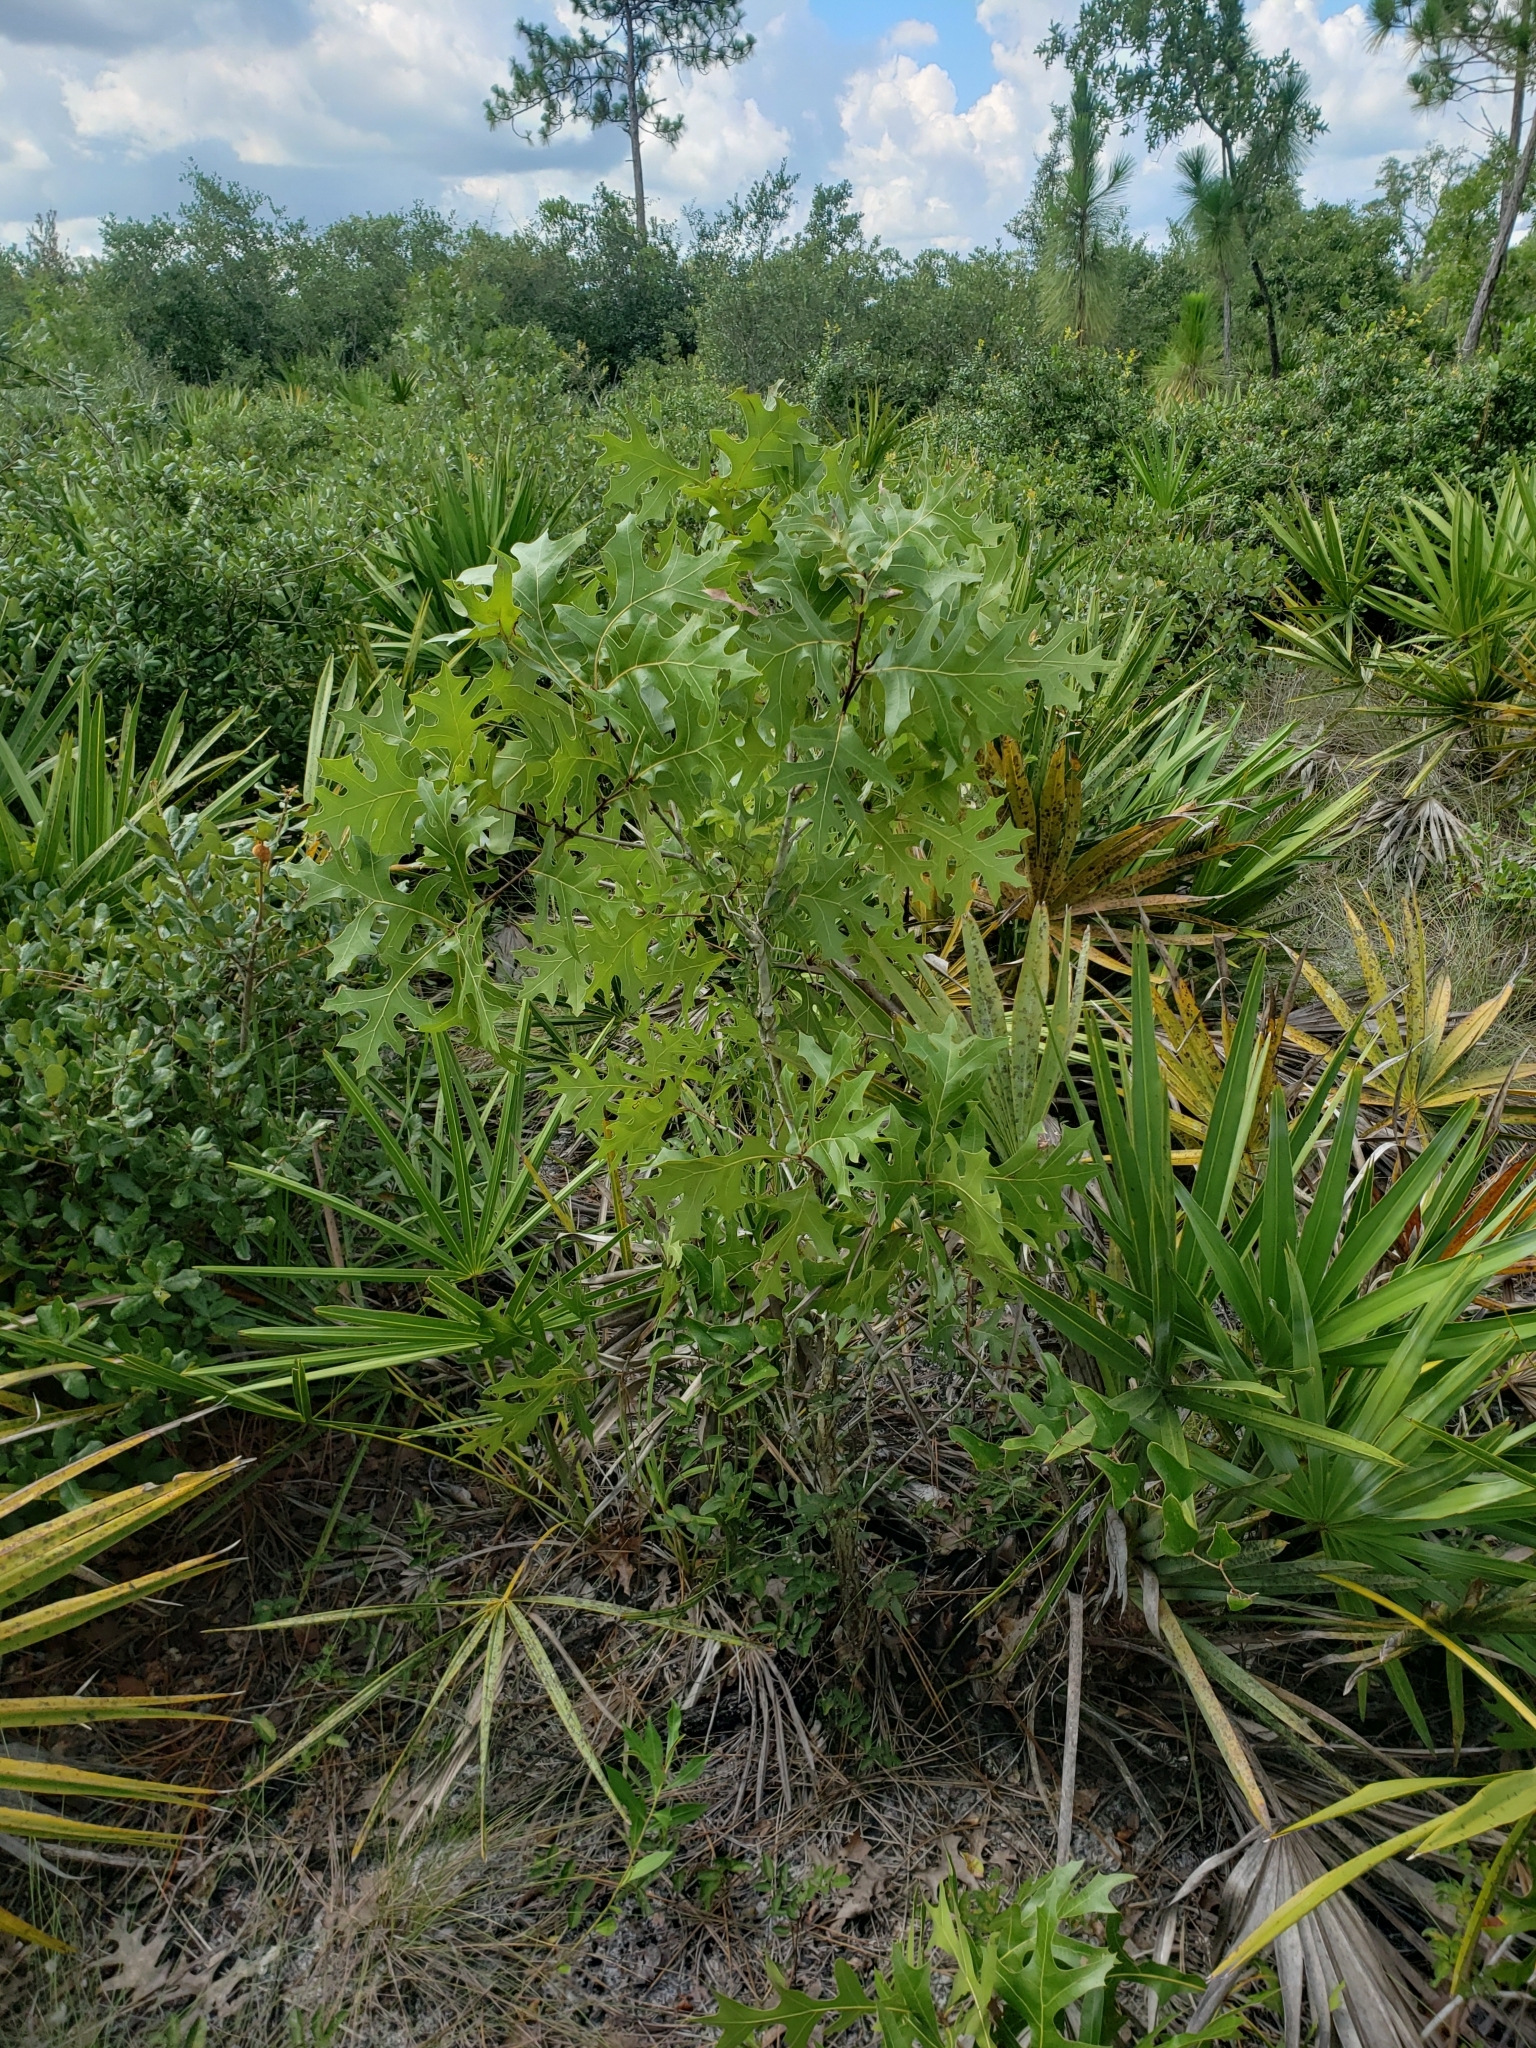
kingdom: Plantae
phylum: Tracheophyta
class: Magnoliopsida
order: Fagales
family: Fagaceae
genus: Quercus
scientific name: Quercus laevis
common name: Turkey oak
